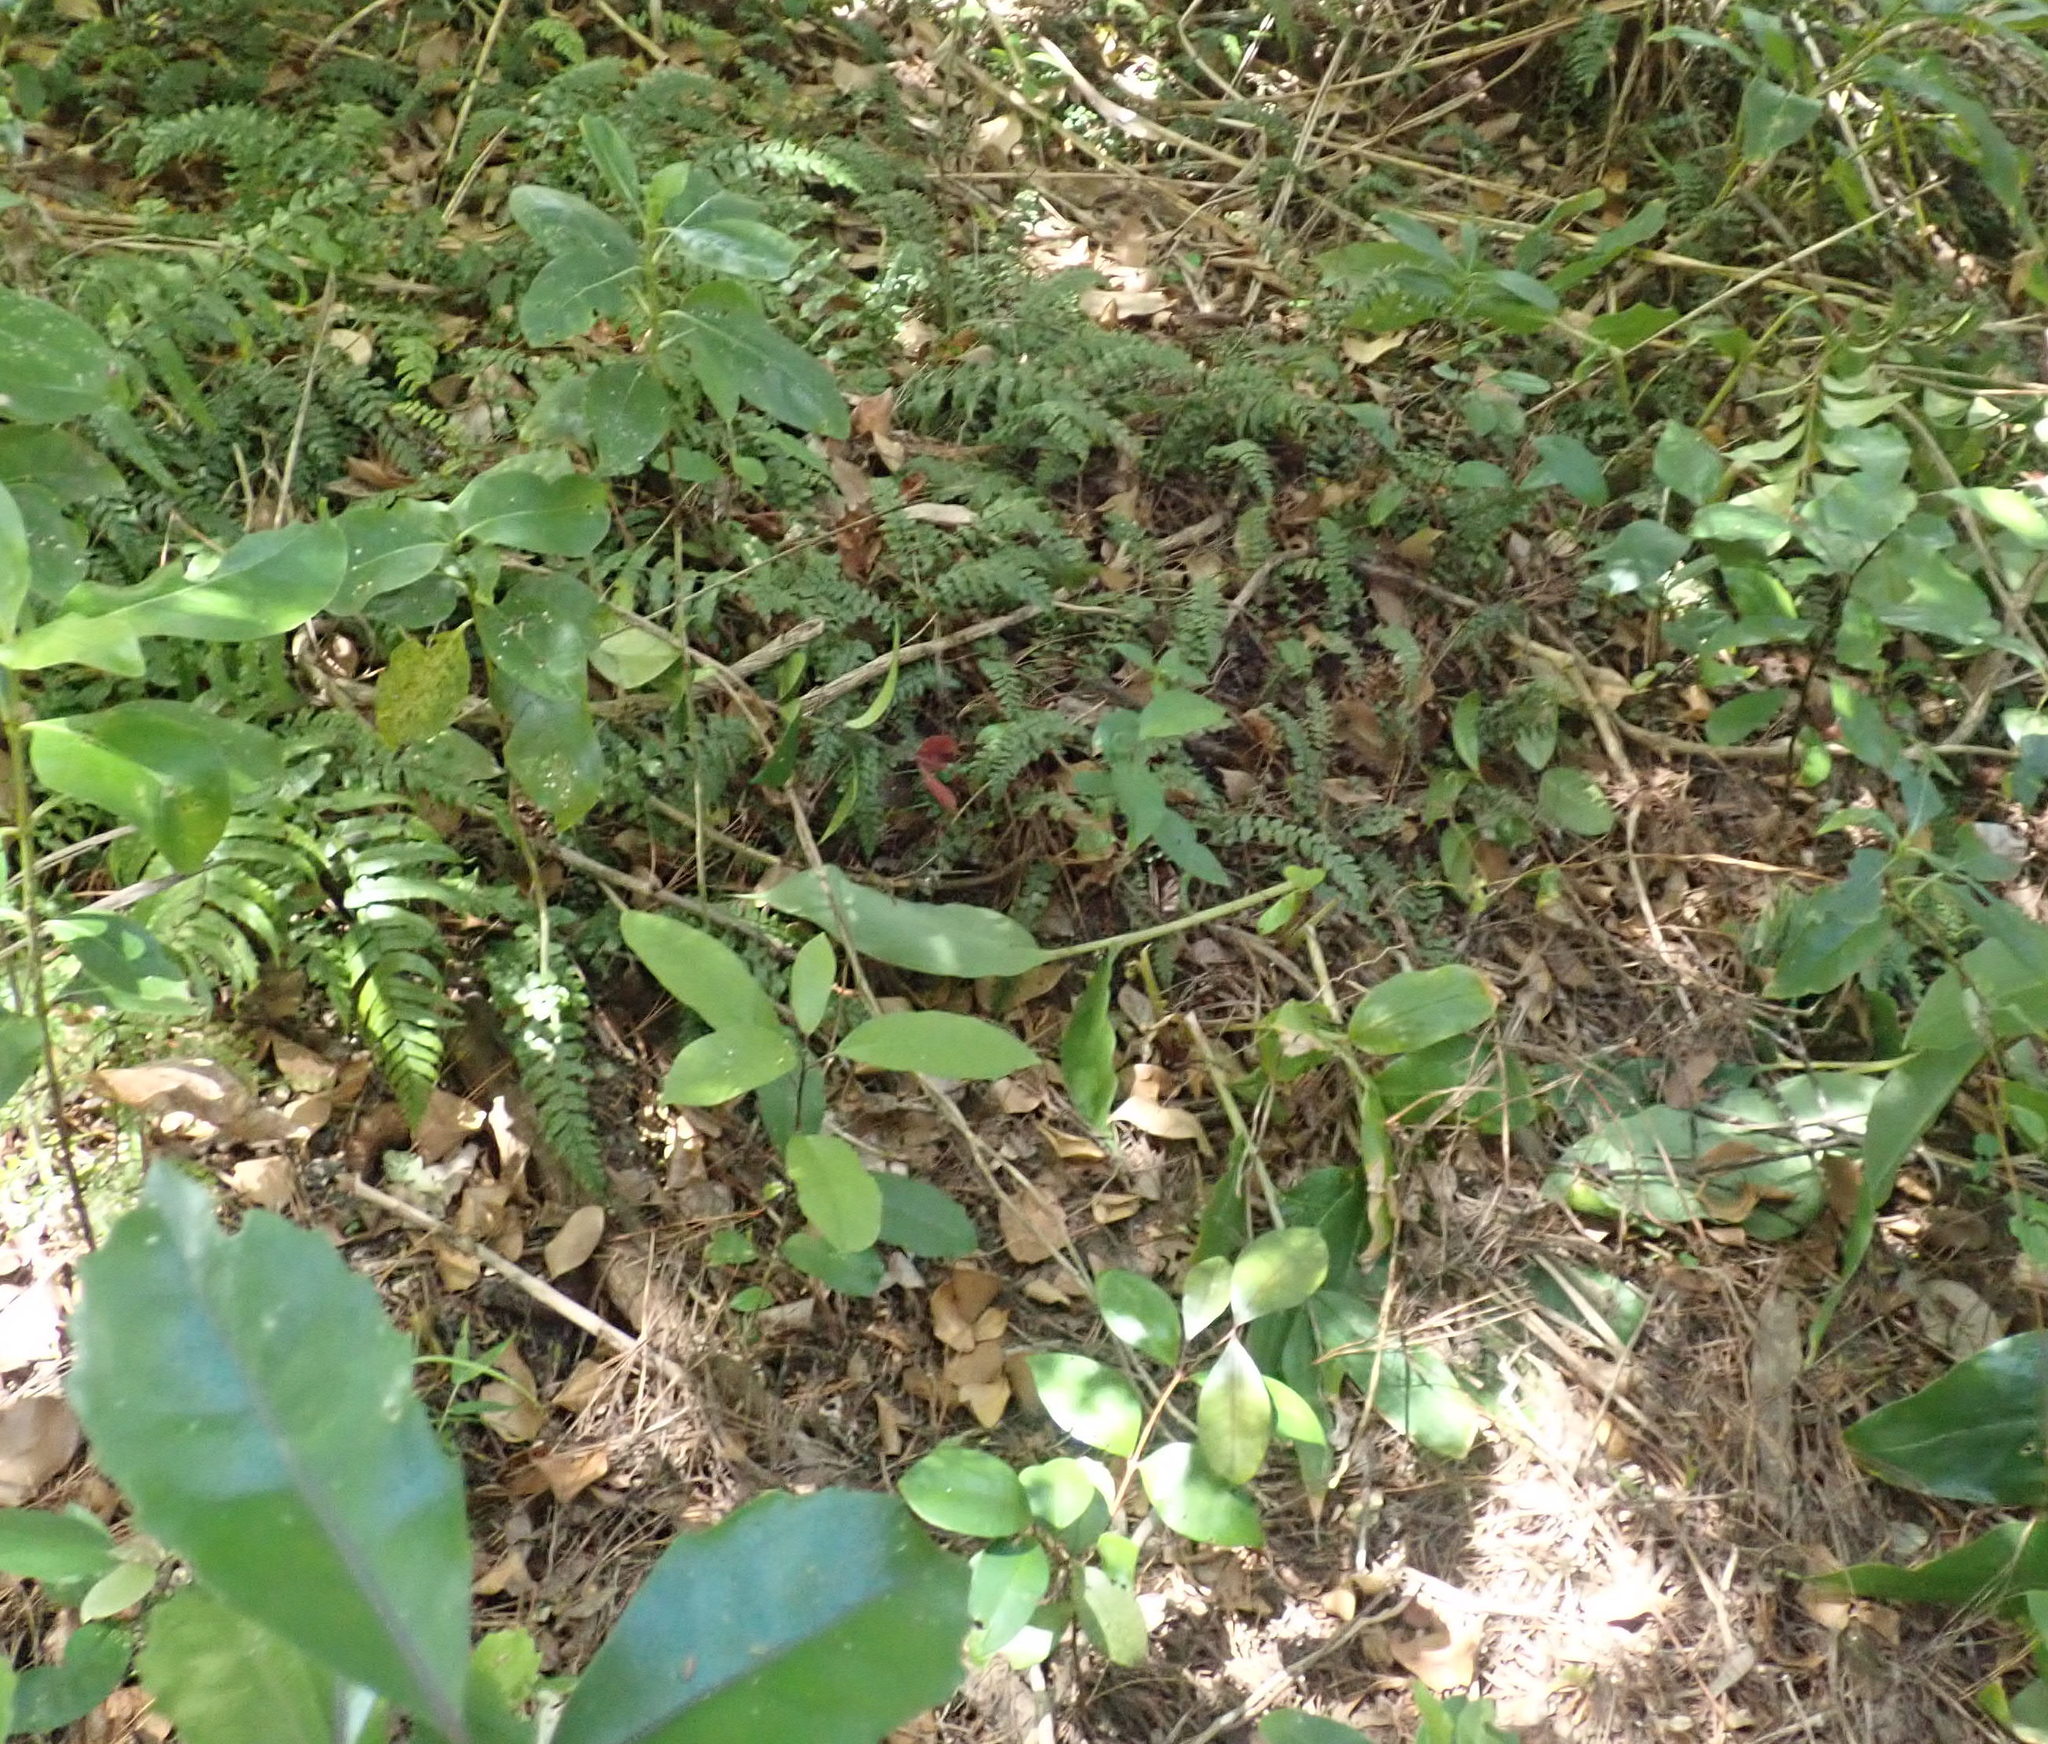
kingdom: Plantae
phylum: Tracheophyta
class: Magnoliopsida
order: Malpighiales
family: Violaceae
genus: Melicytus
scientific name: Melicytus ramiflorus
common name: Mahoe
